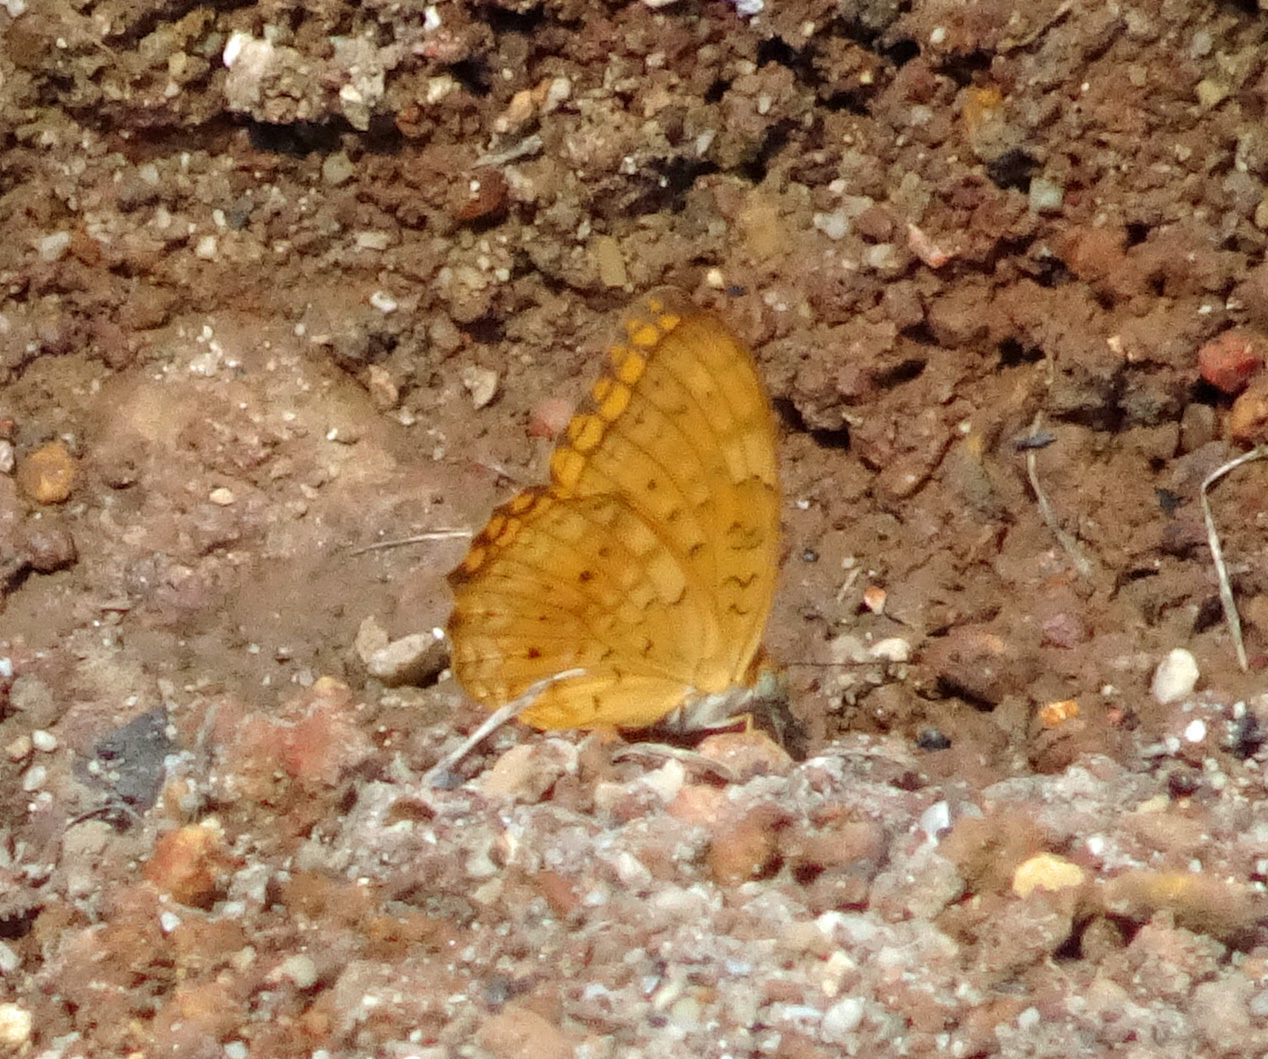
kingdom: Animalia
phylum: Arthropoda
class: Insecta
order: Lepidoptera
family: Nymphalidae
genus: Phalanta
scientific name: Phalanta phalantha
